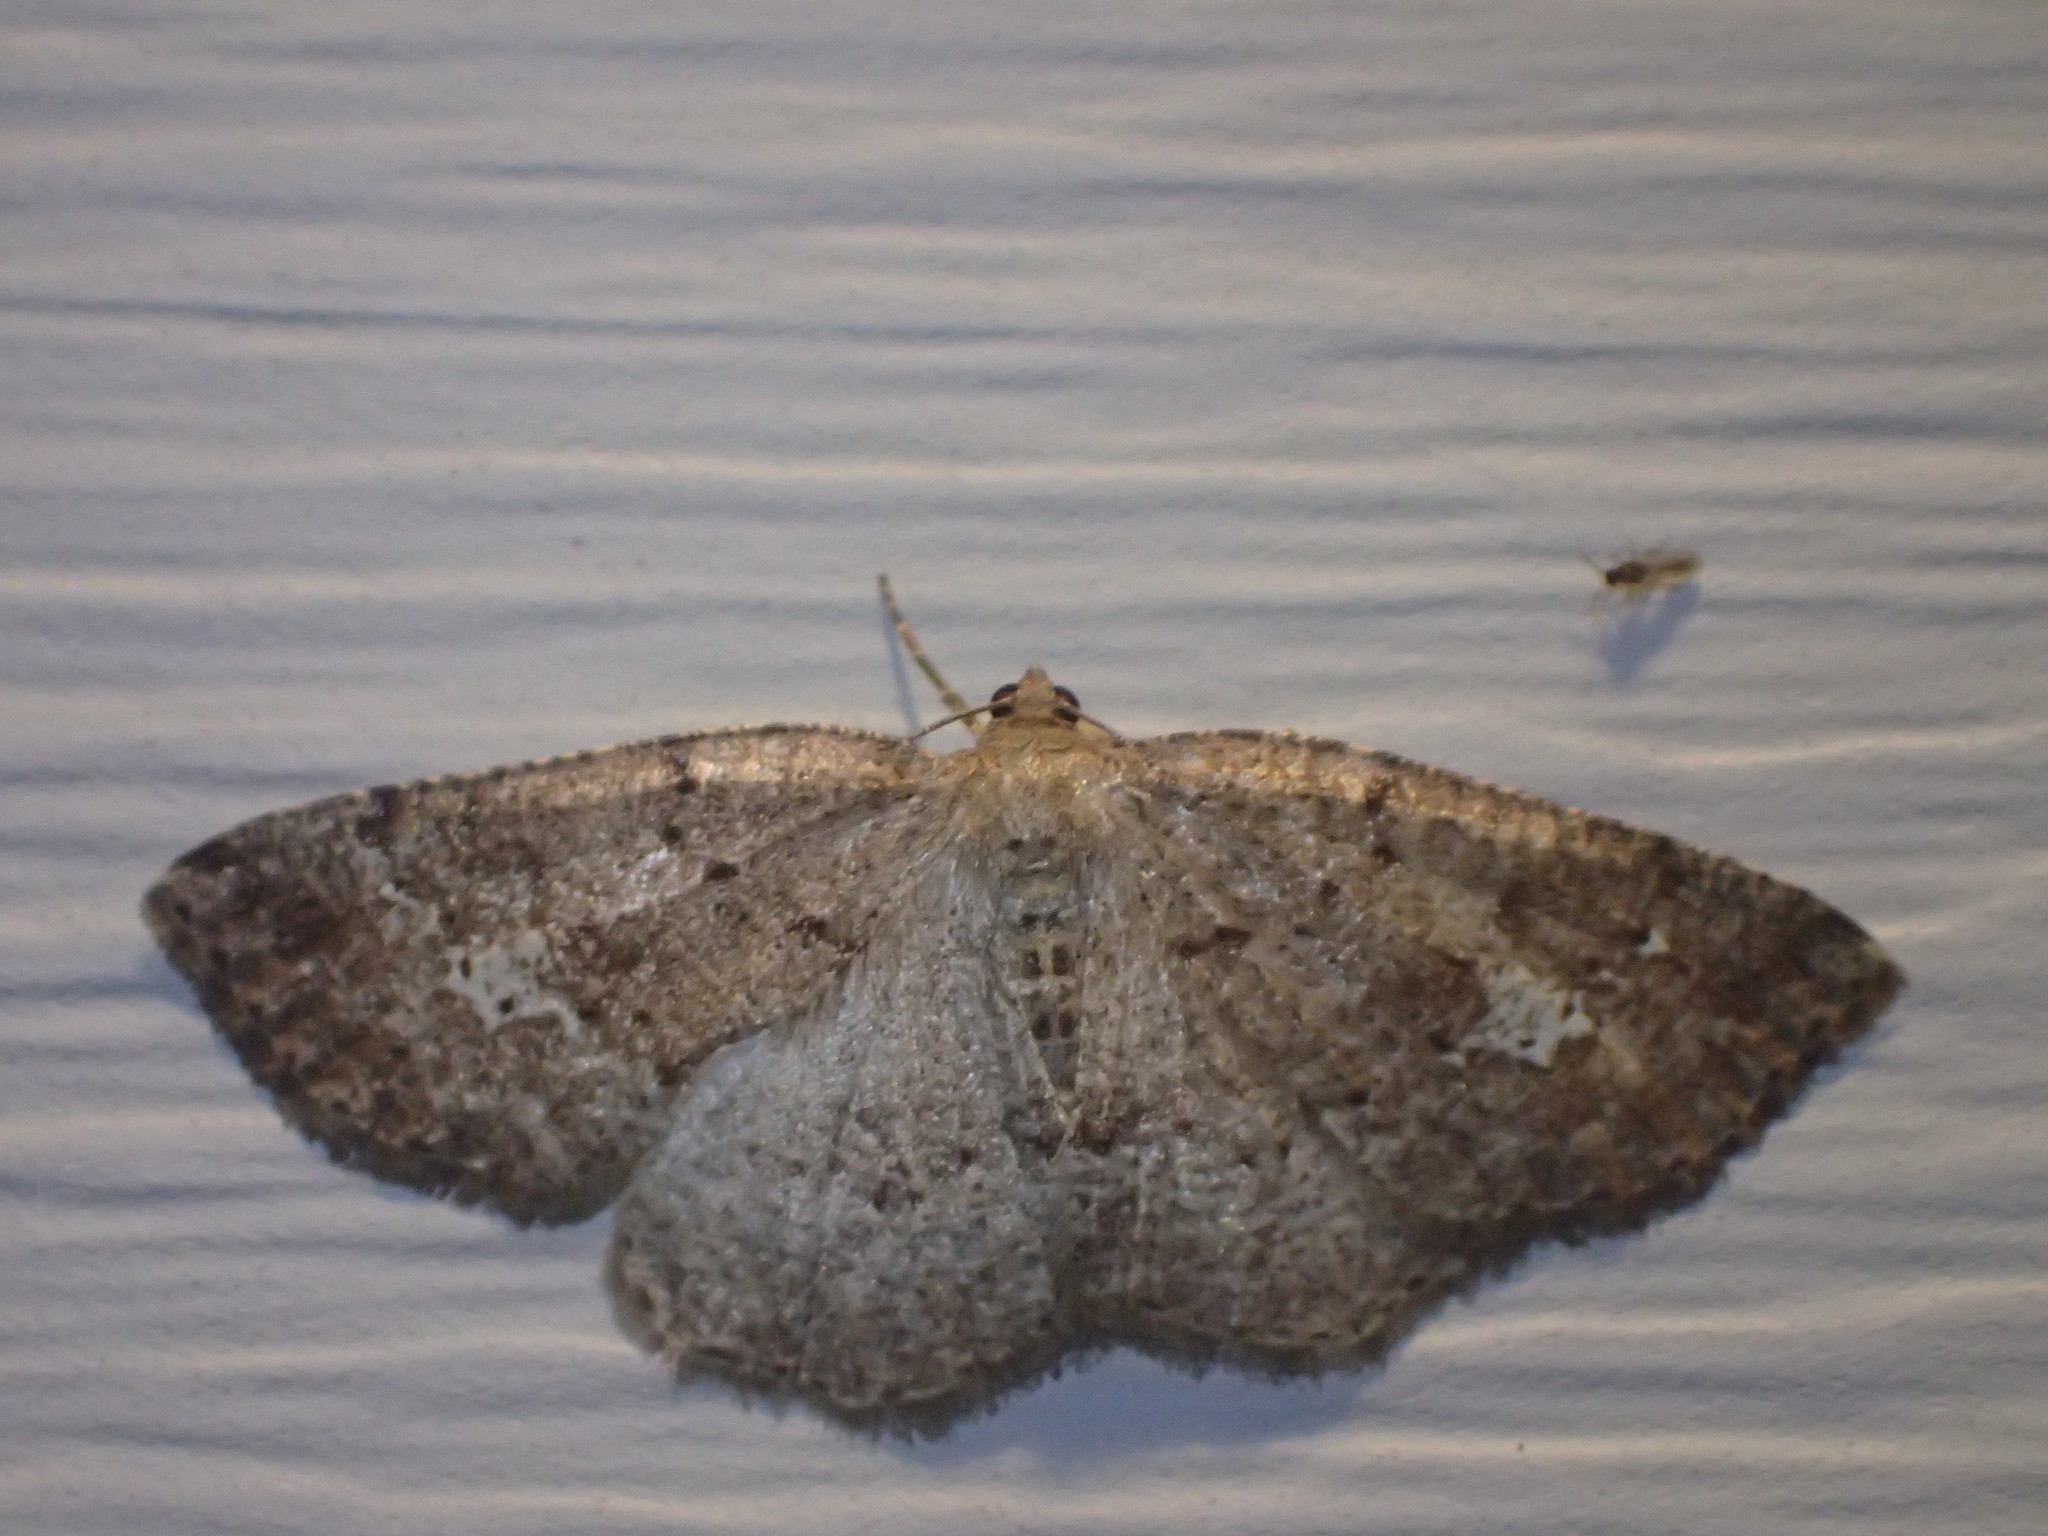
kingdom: Animalia
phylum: Arthropoda
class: Insecta
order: Lepidoptera
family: Geometridae
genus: Homochlodes
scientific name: Homochlodes fritillaria
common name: Pale homochlodes
